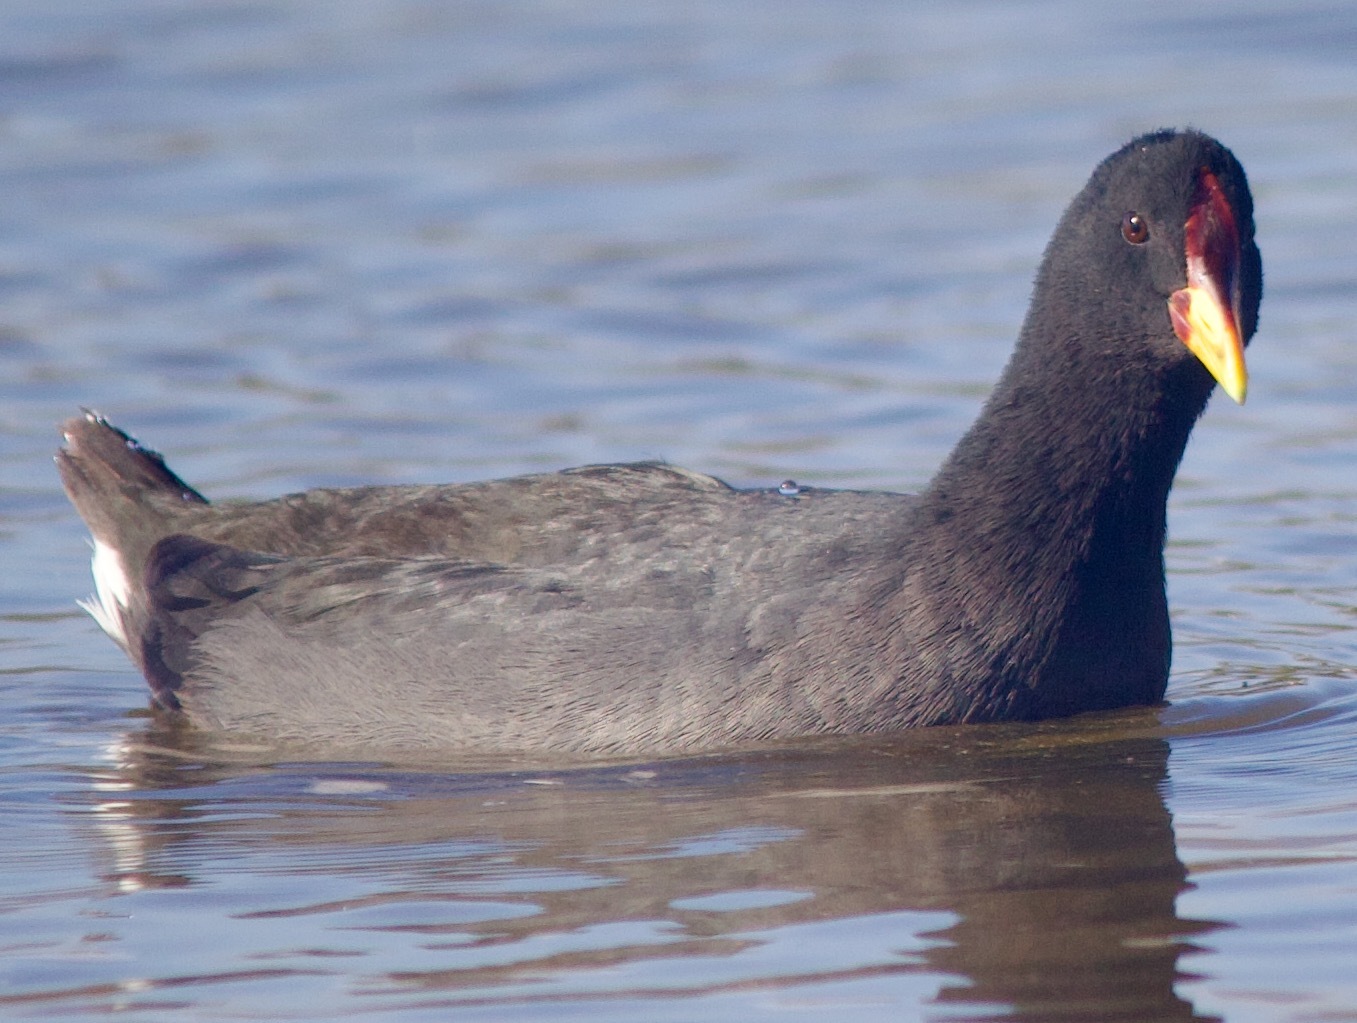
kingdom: Animalia
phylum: Chordata
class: Aves
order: Gruiformes
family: Rallidae
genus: Fulica
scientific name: Fulica rufifrons
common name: Red-fronted coot
